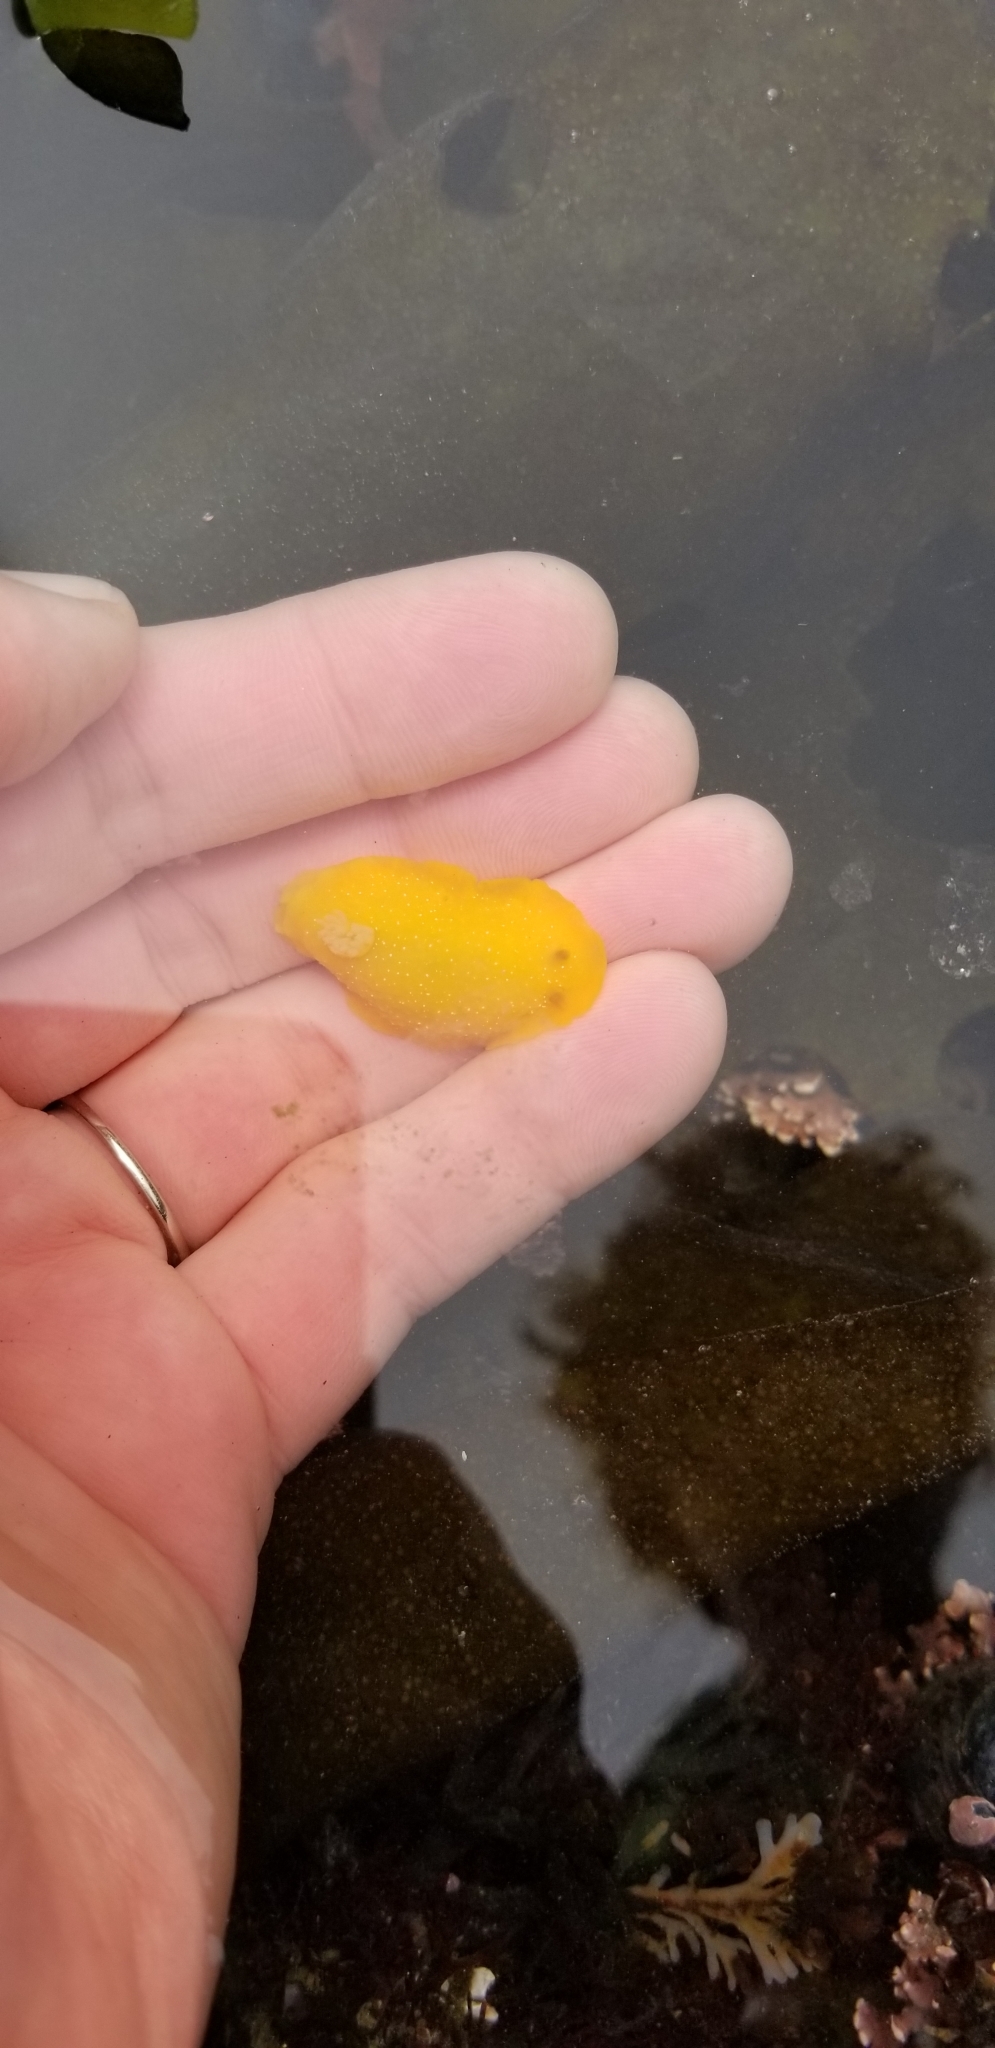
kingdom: Animalia
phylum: Mollusca
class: Gastropoda
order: Nudibranchia
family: Dendrodorididae
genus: Doriopsilla
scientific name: Doriopsilla fulva
